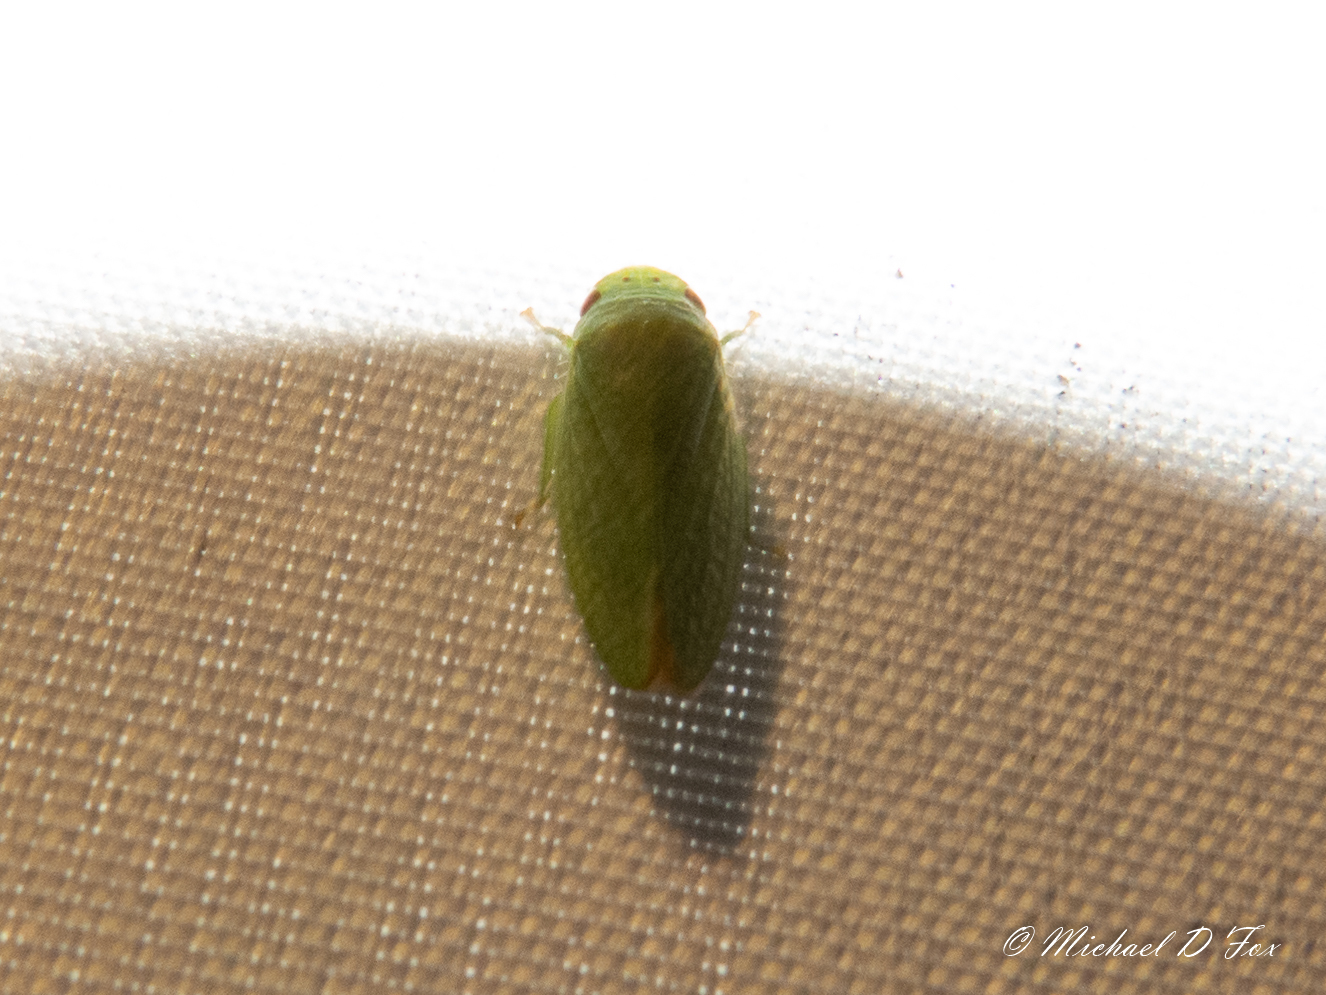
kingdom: Animalia
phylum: Arthropoda
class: Insecta
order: Hemiptera
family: Cicadellidae
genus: Rugosana
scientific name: Rugosana querci
